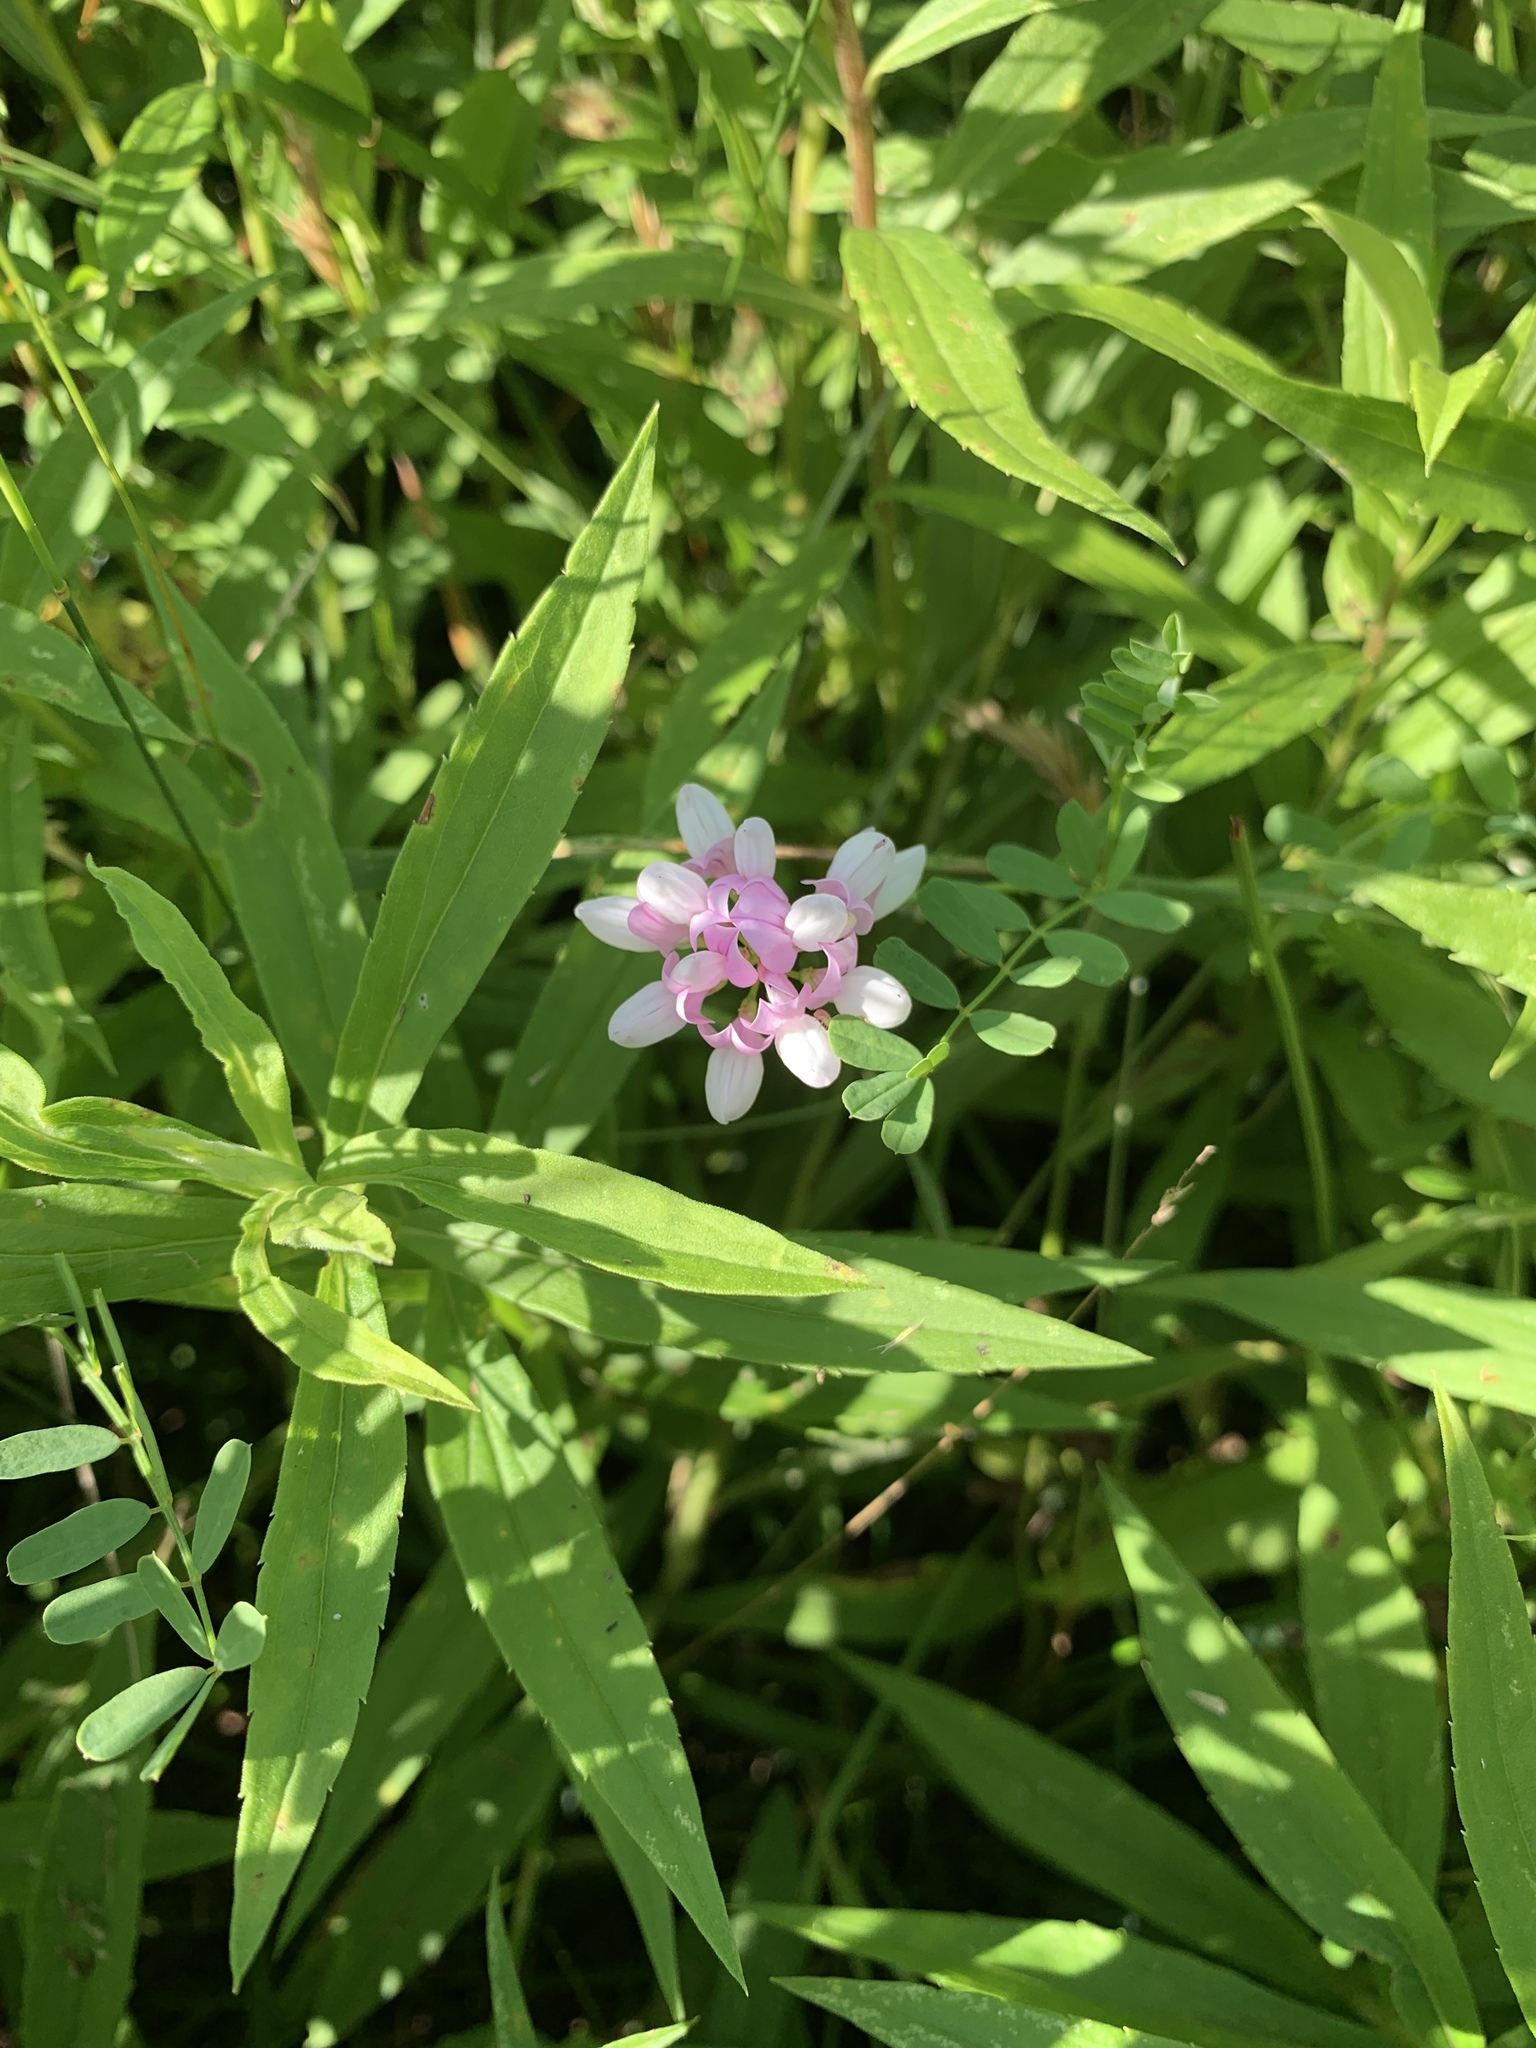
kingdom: Plantae
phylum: Tracheophyta
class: Magnoliopsida
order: Fabales
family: Fabaceae
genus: Coronilla
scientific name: Coronilla varia
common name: Crownvetch
